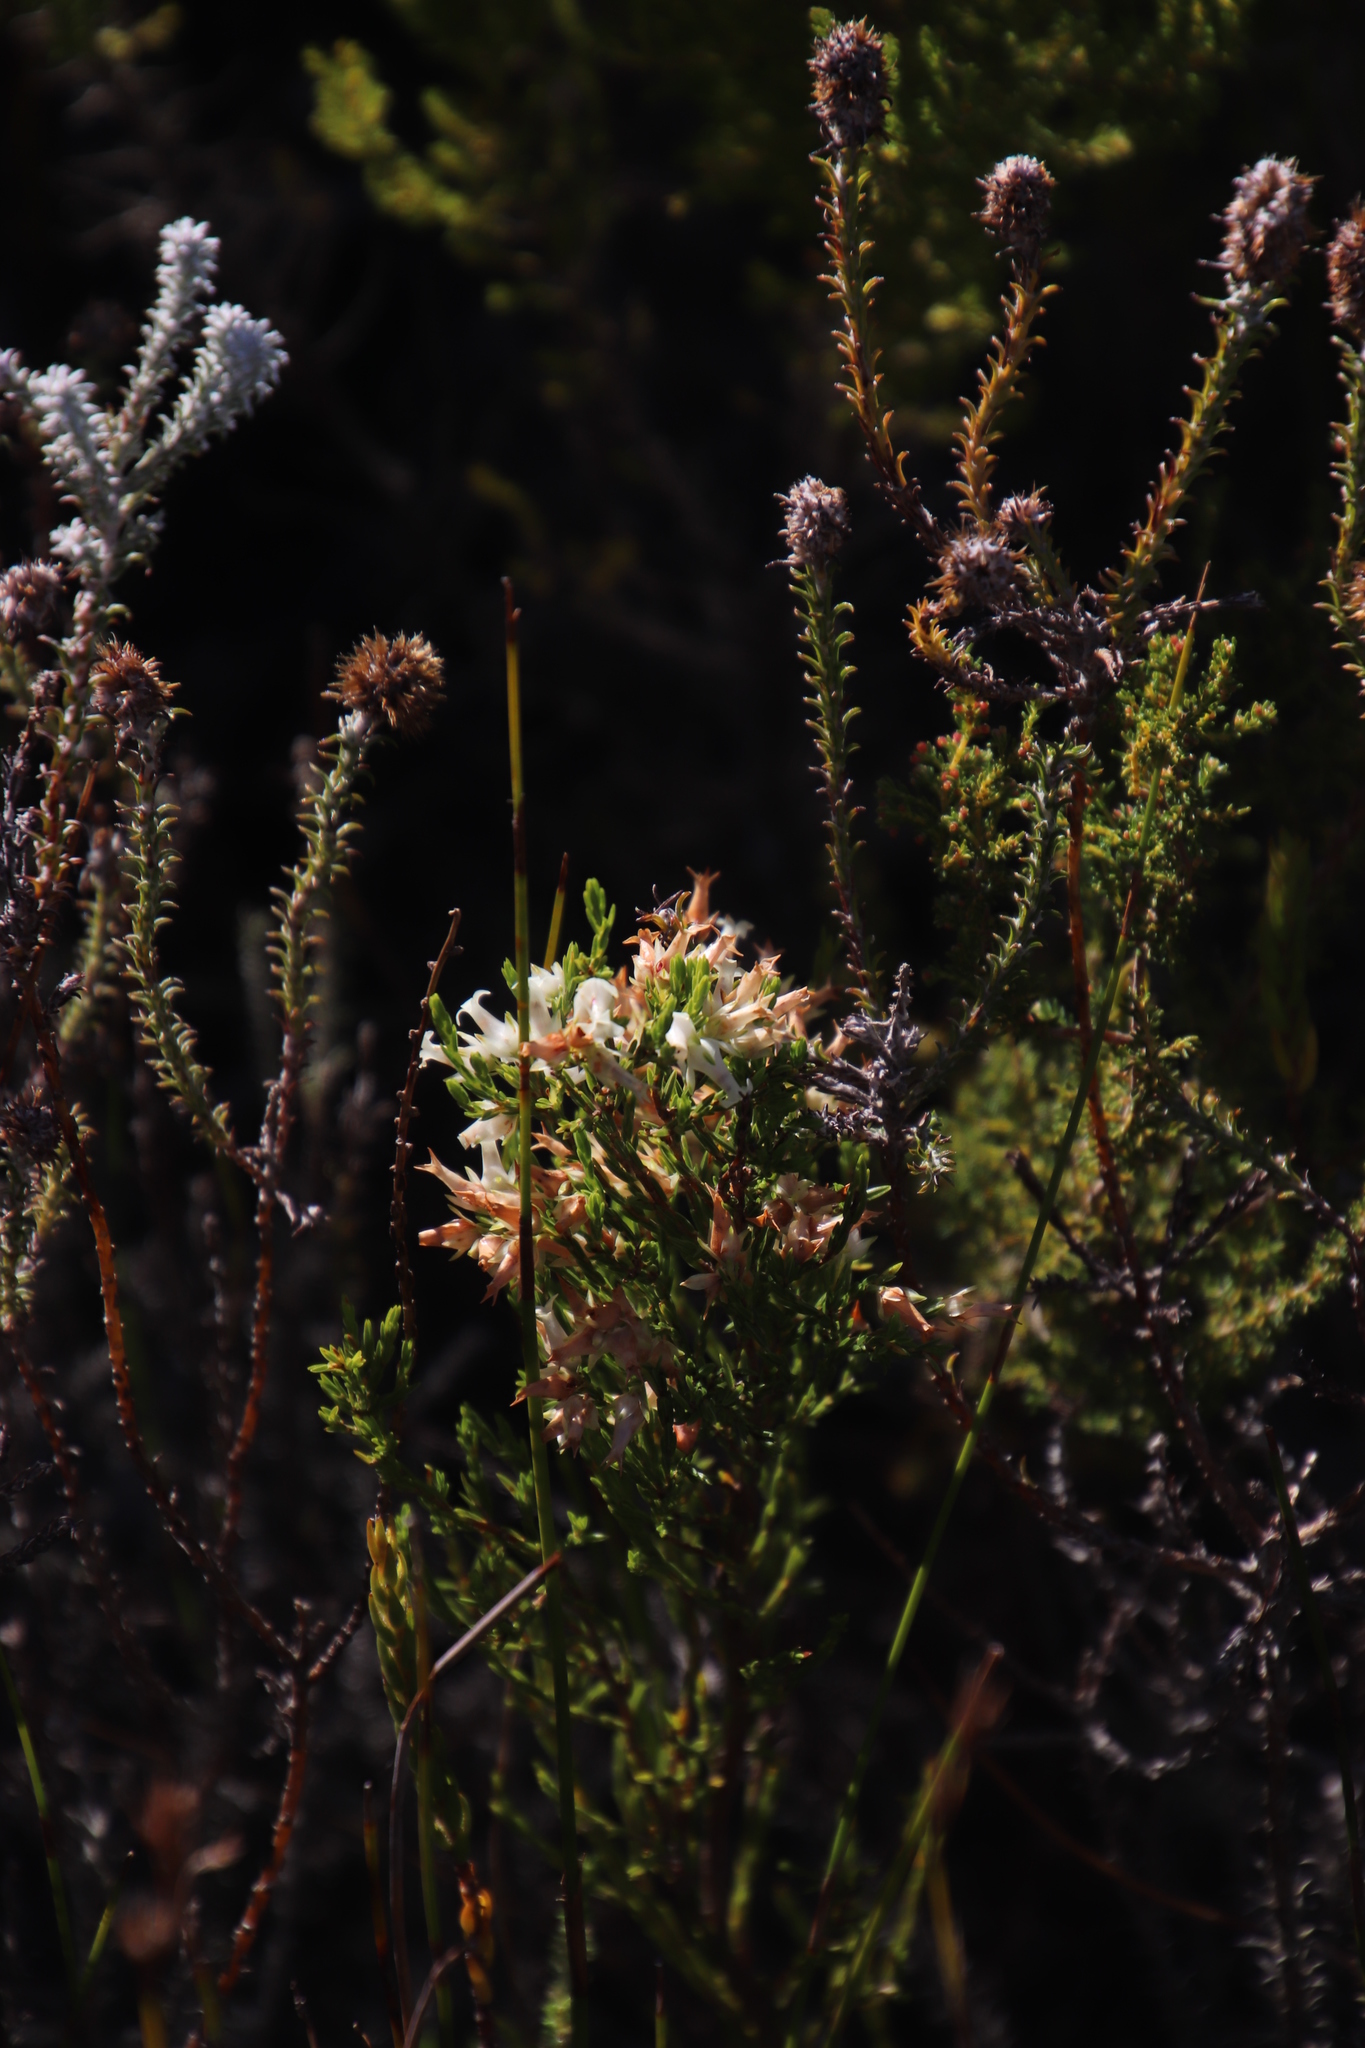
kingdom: Plantae
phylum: Tracheophyta
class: Magnoliopsida
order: Ericales
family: Ericaceae
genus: Erica
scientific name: Erica lutea
